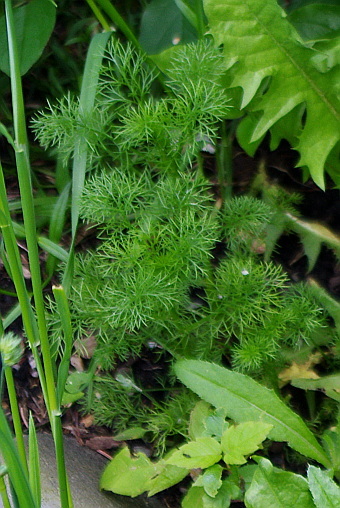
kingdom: Plantae
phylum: Tracheophyta
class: Magnoliopsida
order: Asterales
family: Asteraceae
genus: Tripleurospermum
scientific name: Tripleurospermum inodorum
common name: Scentless mayweed
